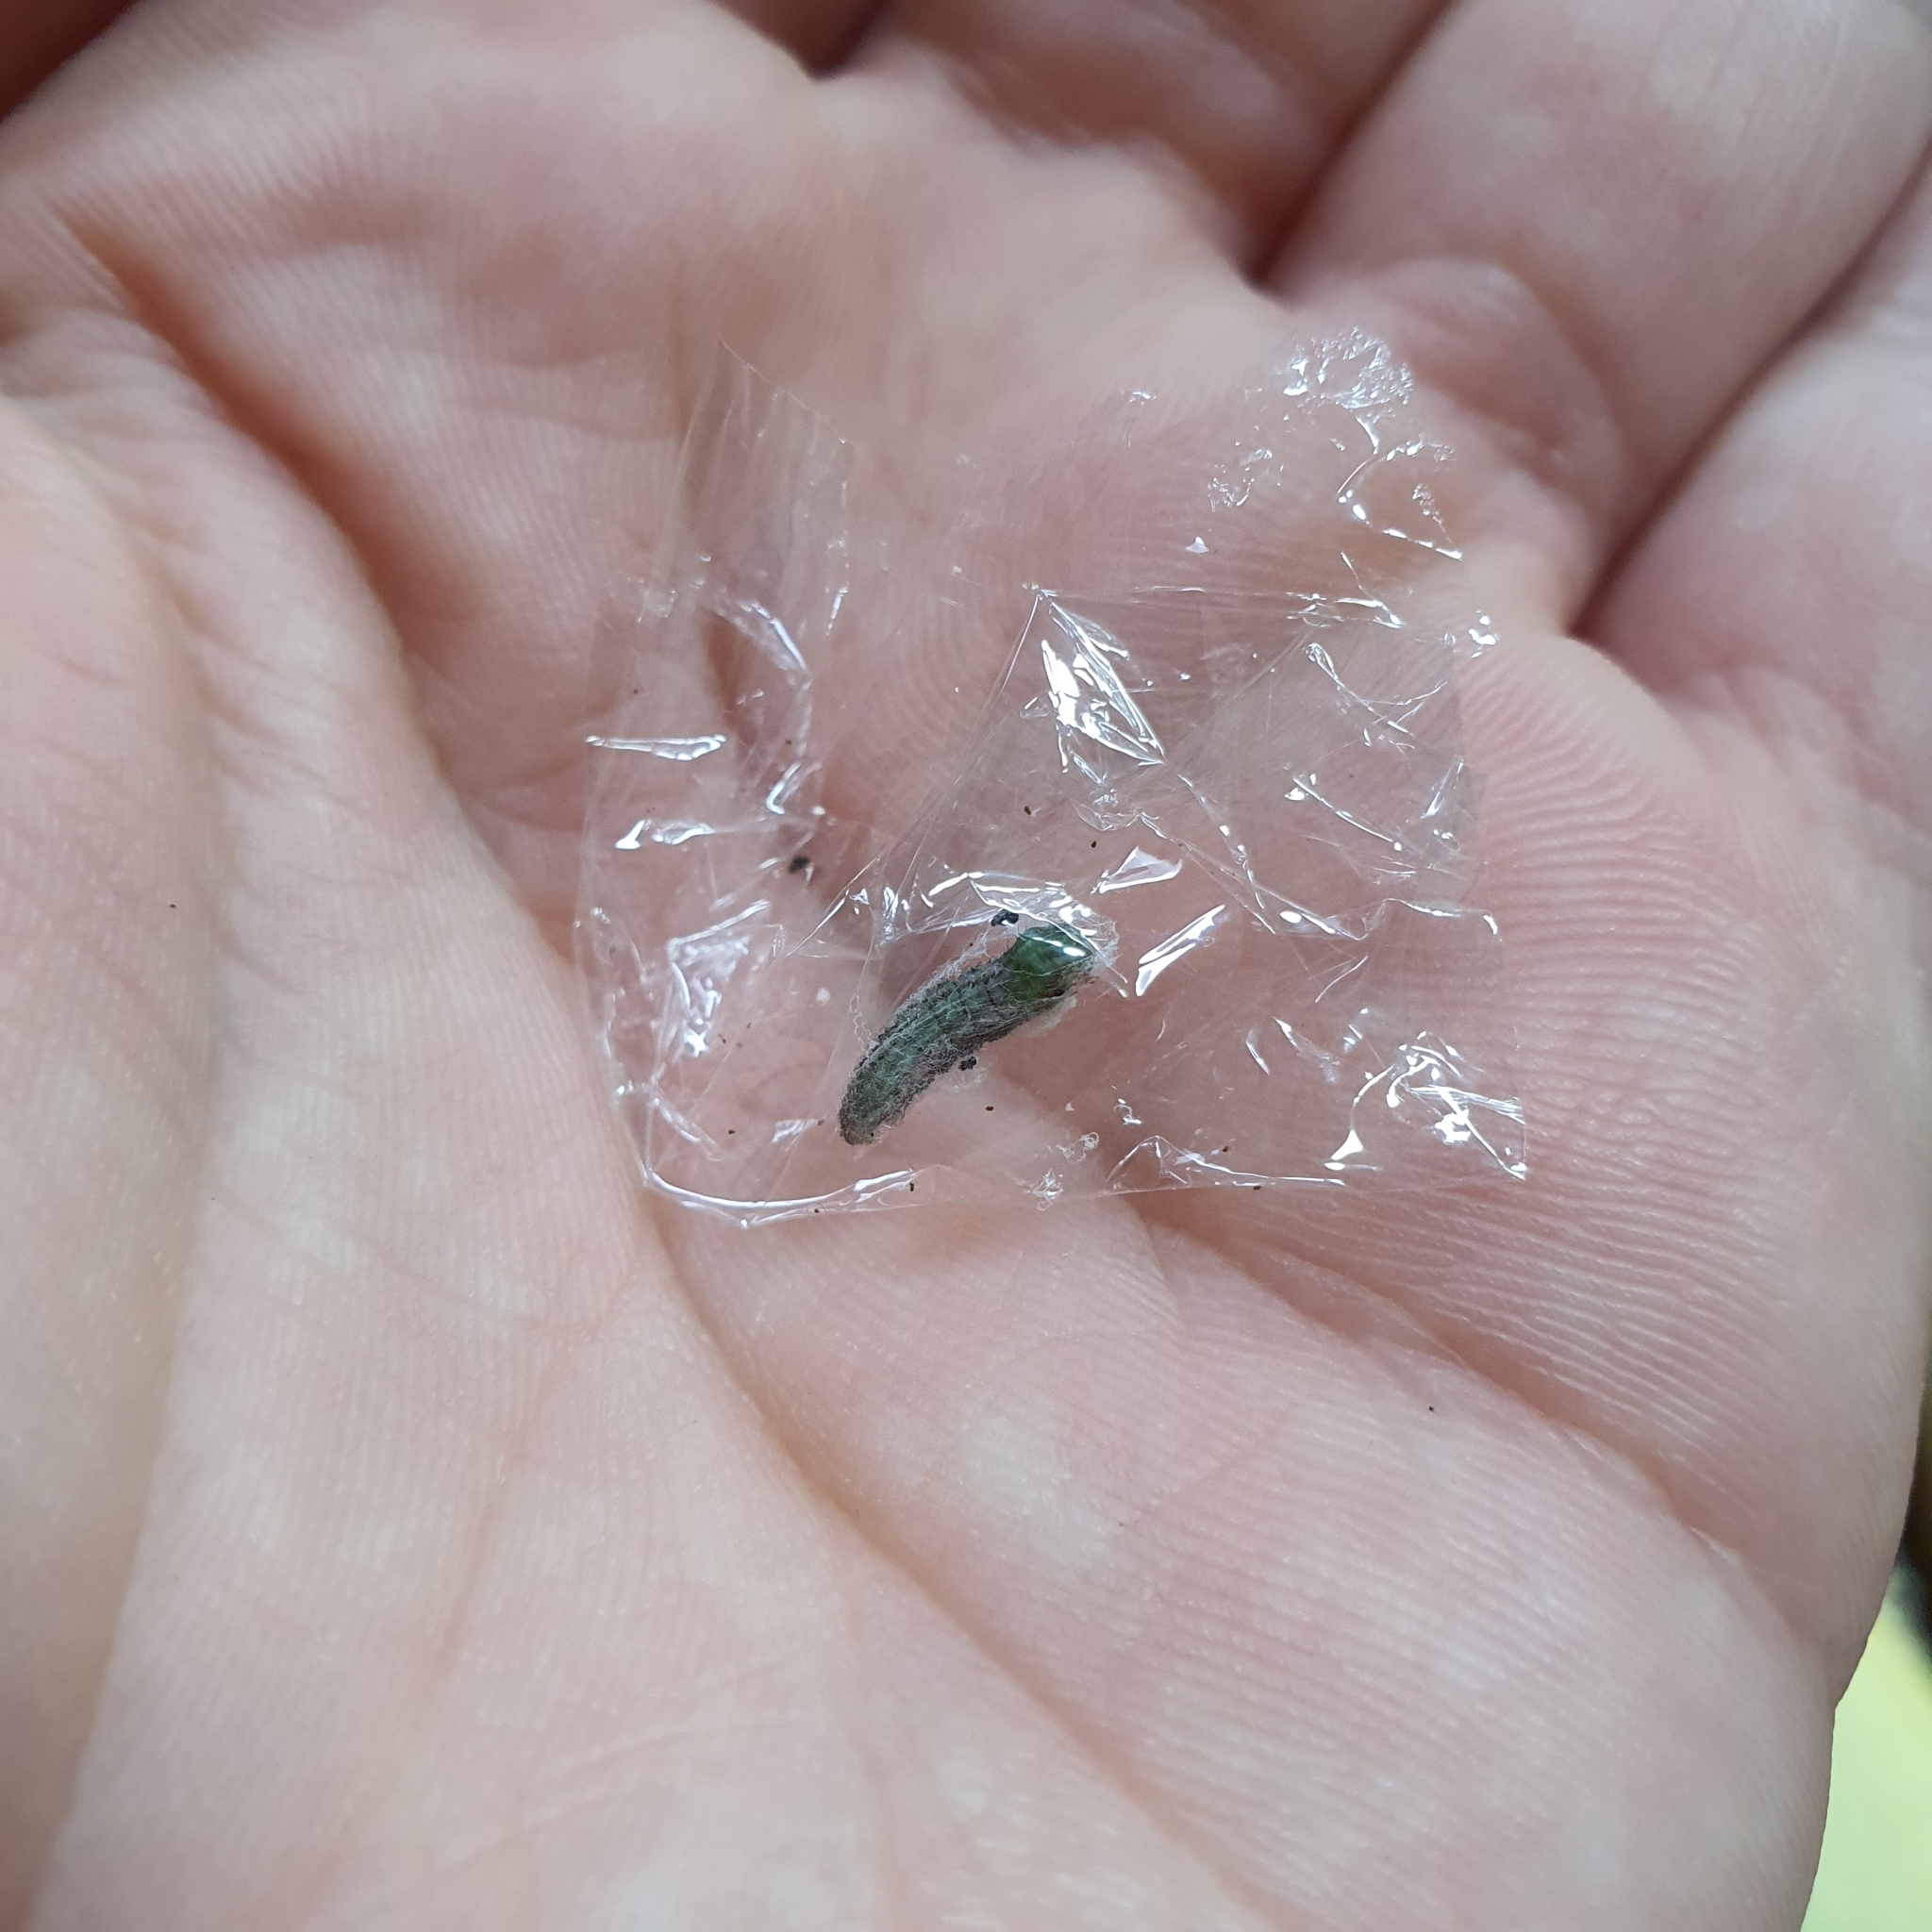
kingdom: Animalia
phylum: Arthropoda
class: Insecta
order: Lepidoptera
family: Geometridae
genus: Microdes
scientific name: Microdes squamulata
